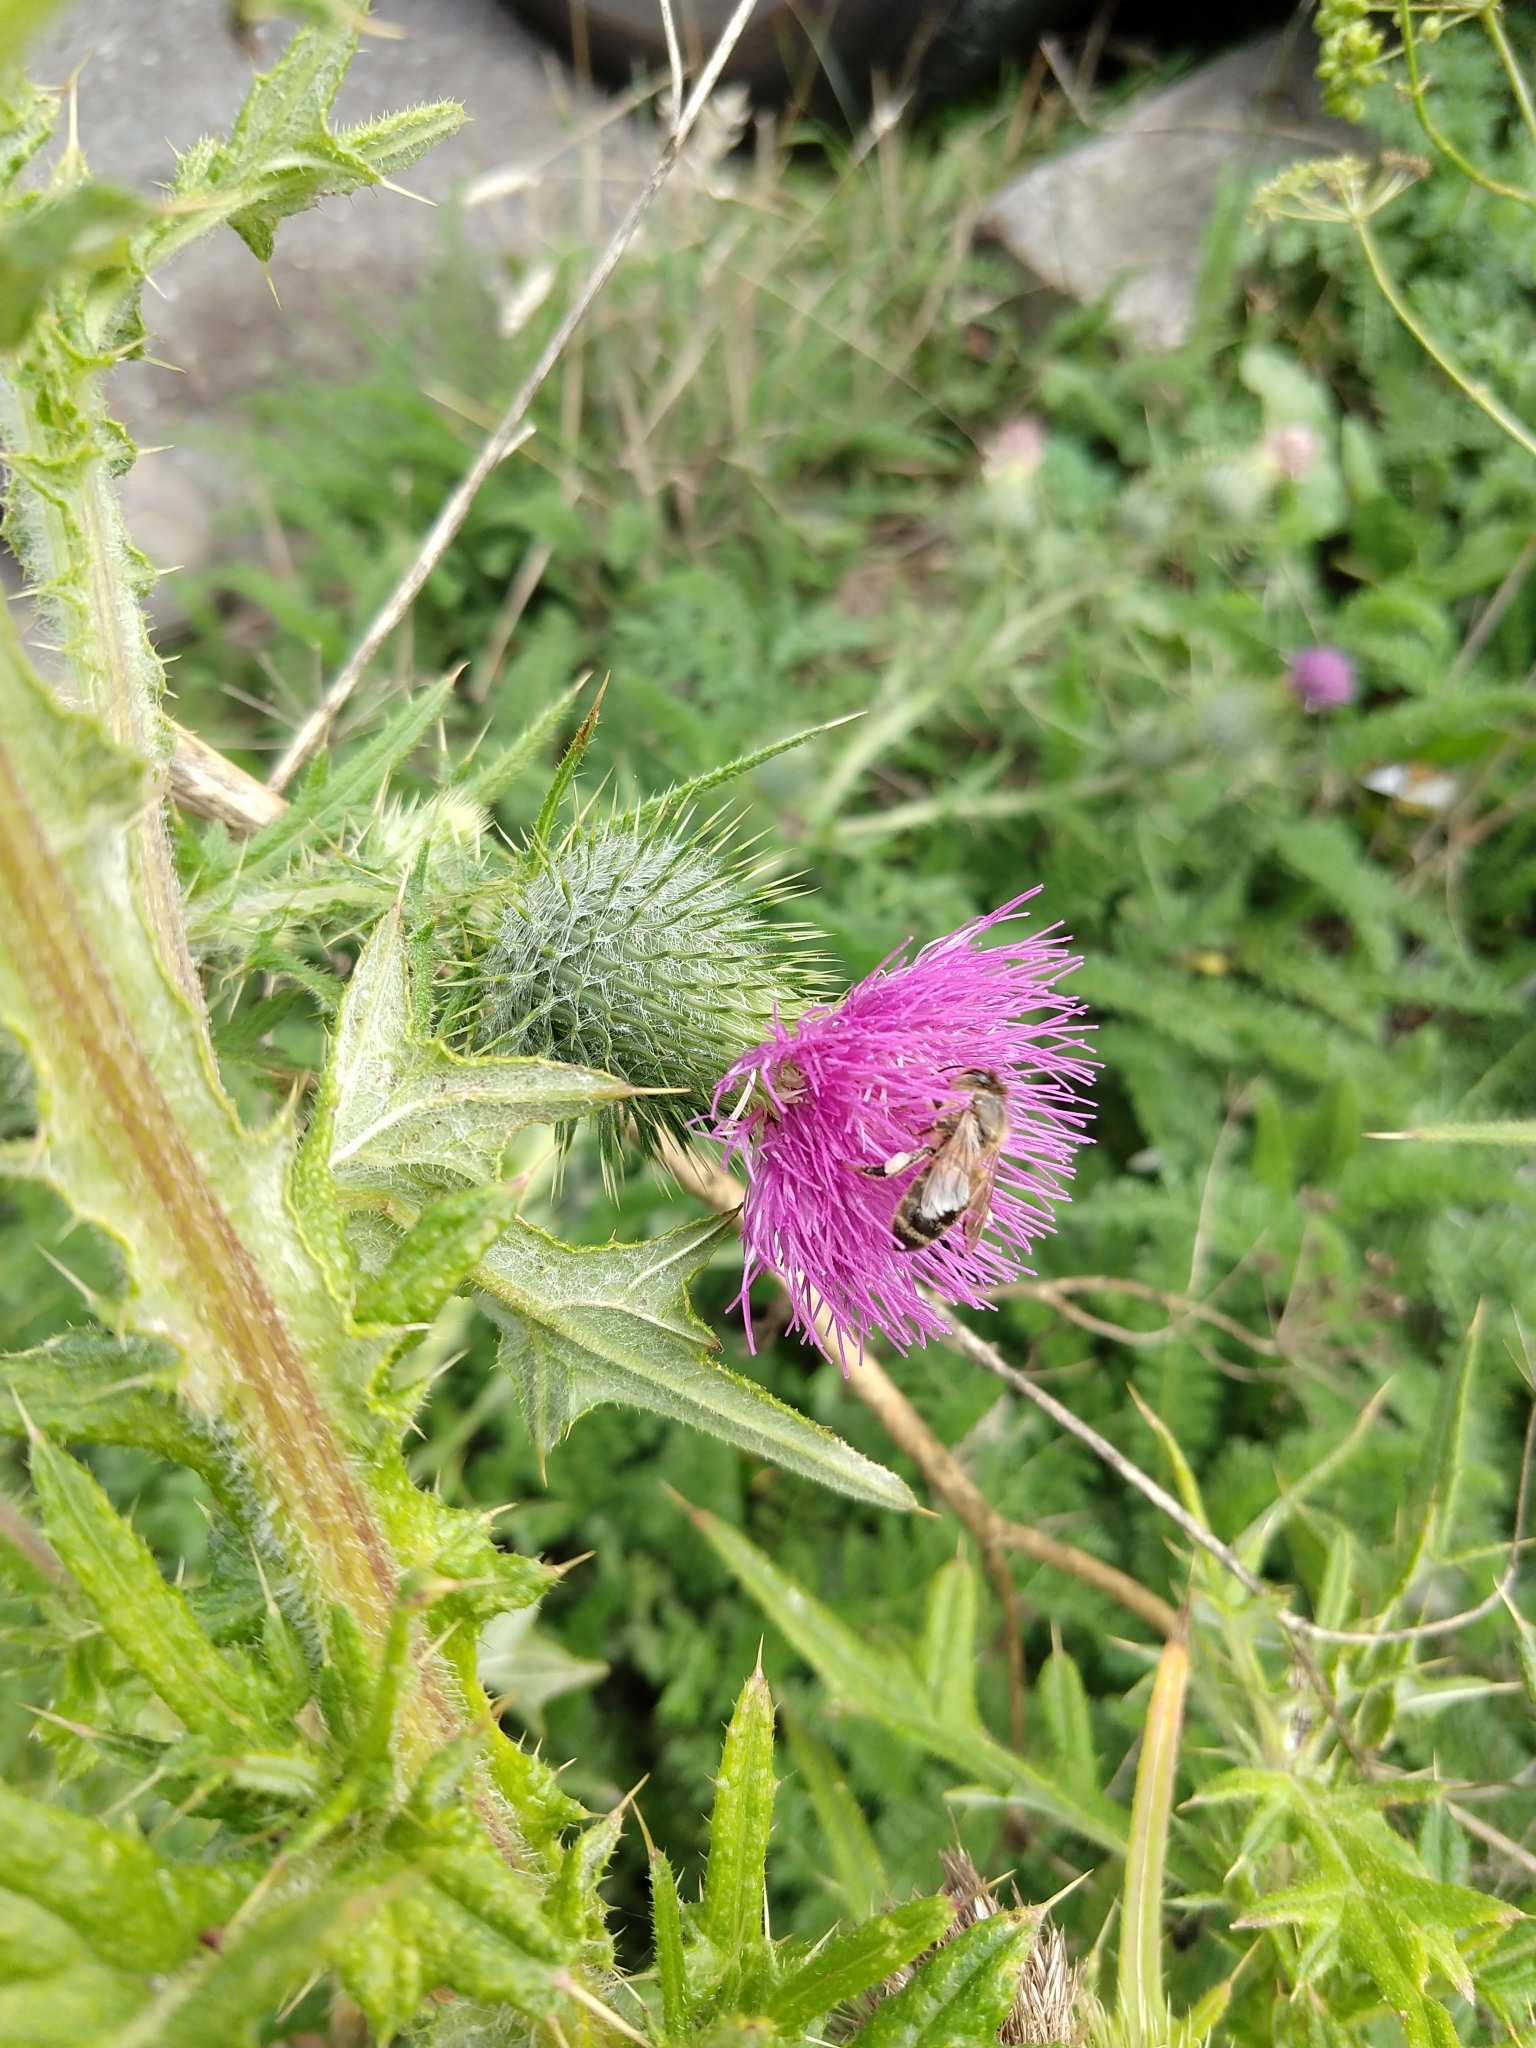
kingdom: Animalia
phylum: Arthropoda
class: Insecta
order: Hymenoptera
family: Apidae
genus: Apis
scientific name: Apis mellifera
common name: Honey bee
